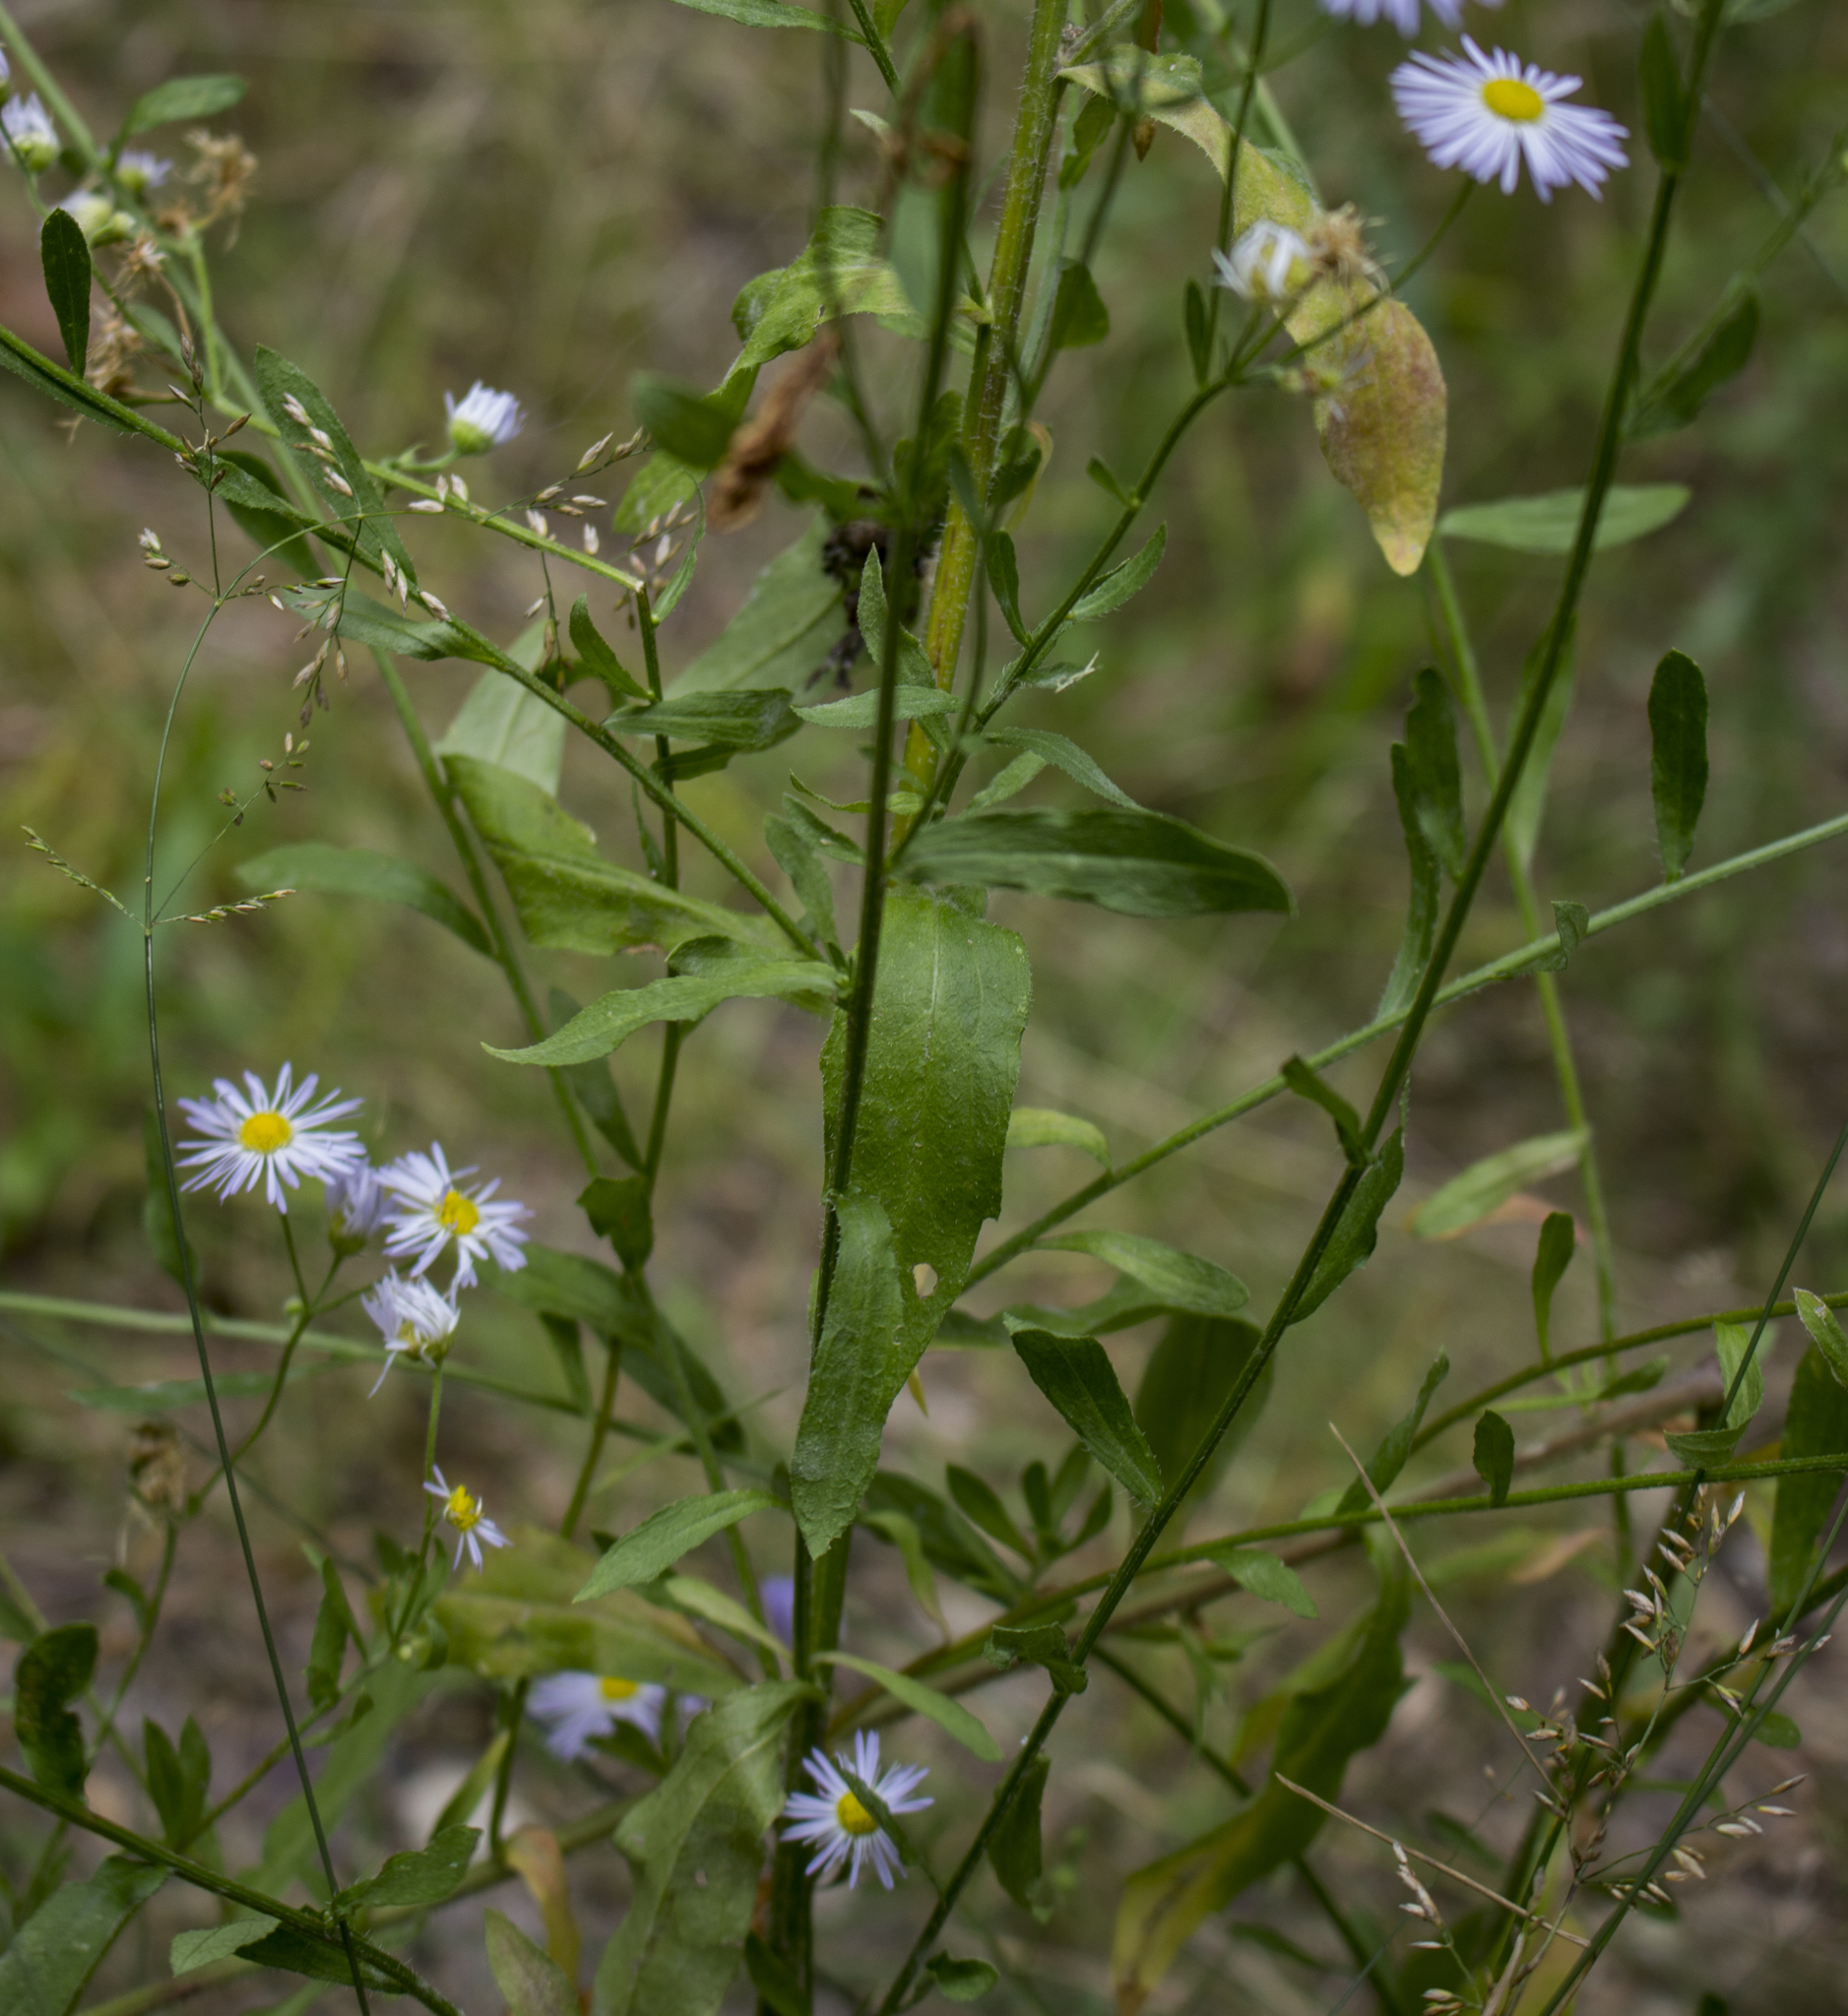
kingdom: Plantae
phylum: Tracheophyta
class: Magnoliopsida
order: Asterales
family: Asteraceae
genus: Erigeron
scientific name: Erigeron annuus
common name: Tall fleabane
